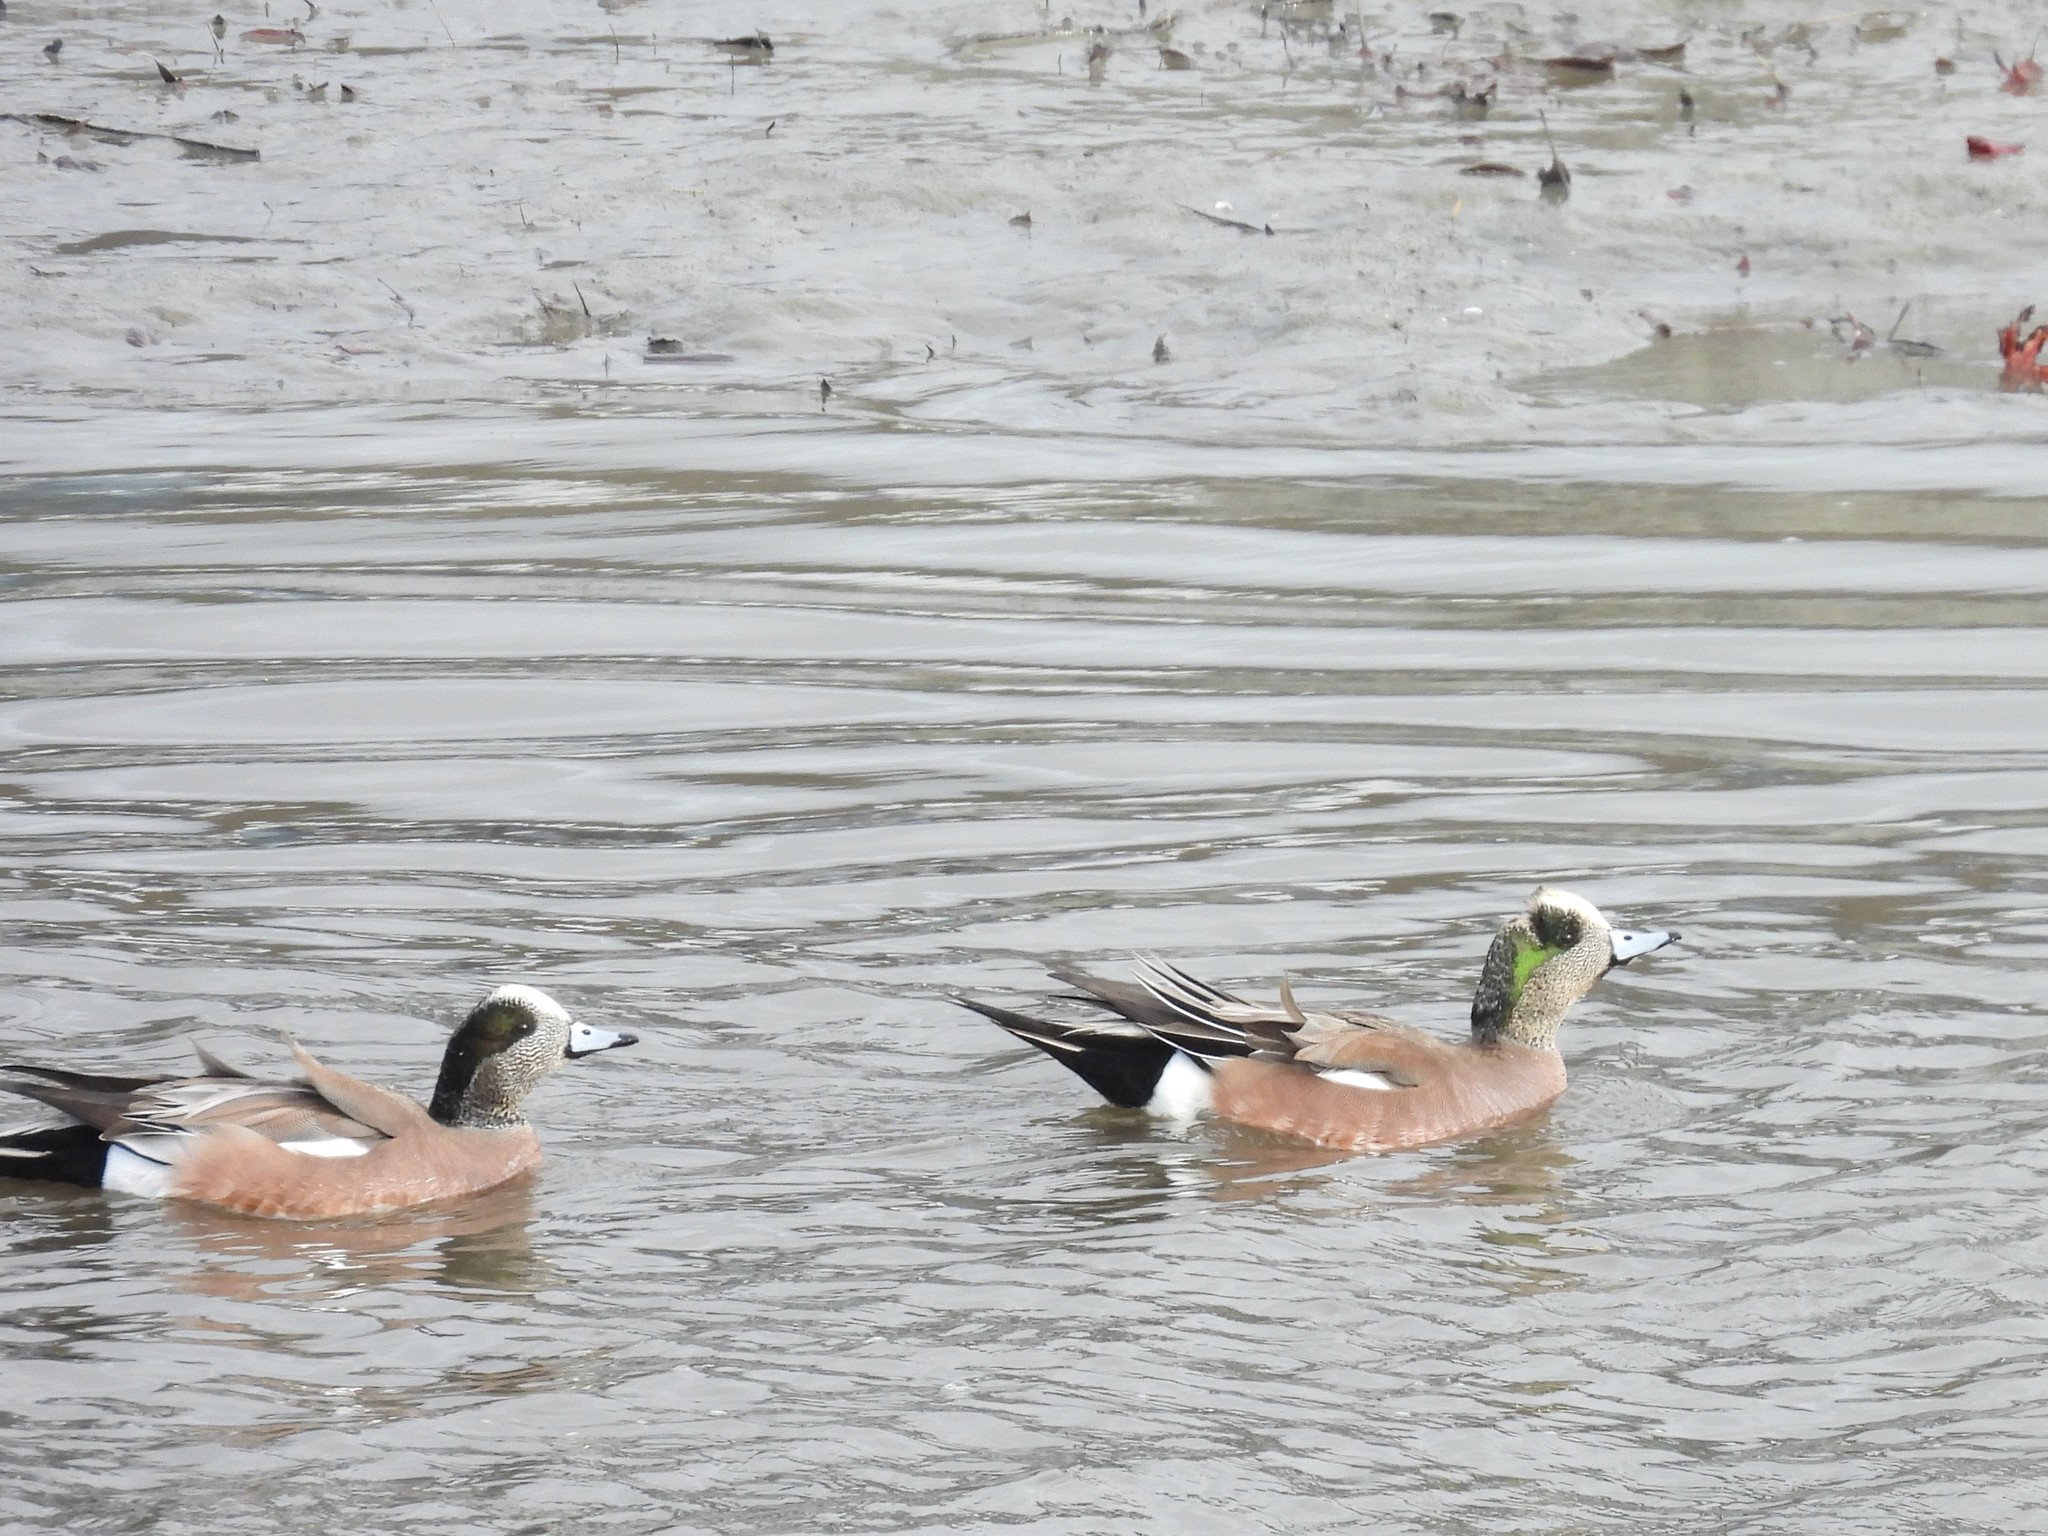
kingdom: Animalia
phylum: Chordata
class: Aves
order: Anseriformes
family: Anatidae
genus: Mareca
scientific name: Mareca americana
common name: American wigeon
